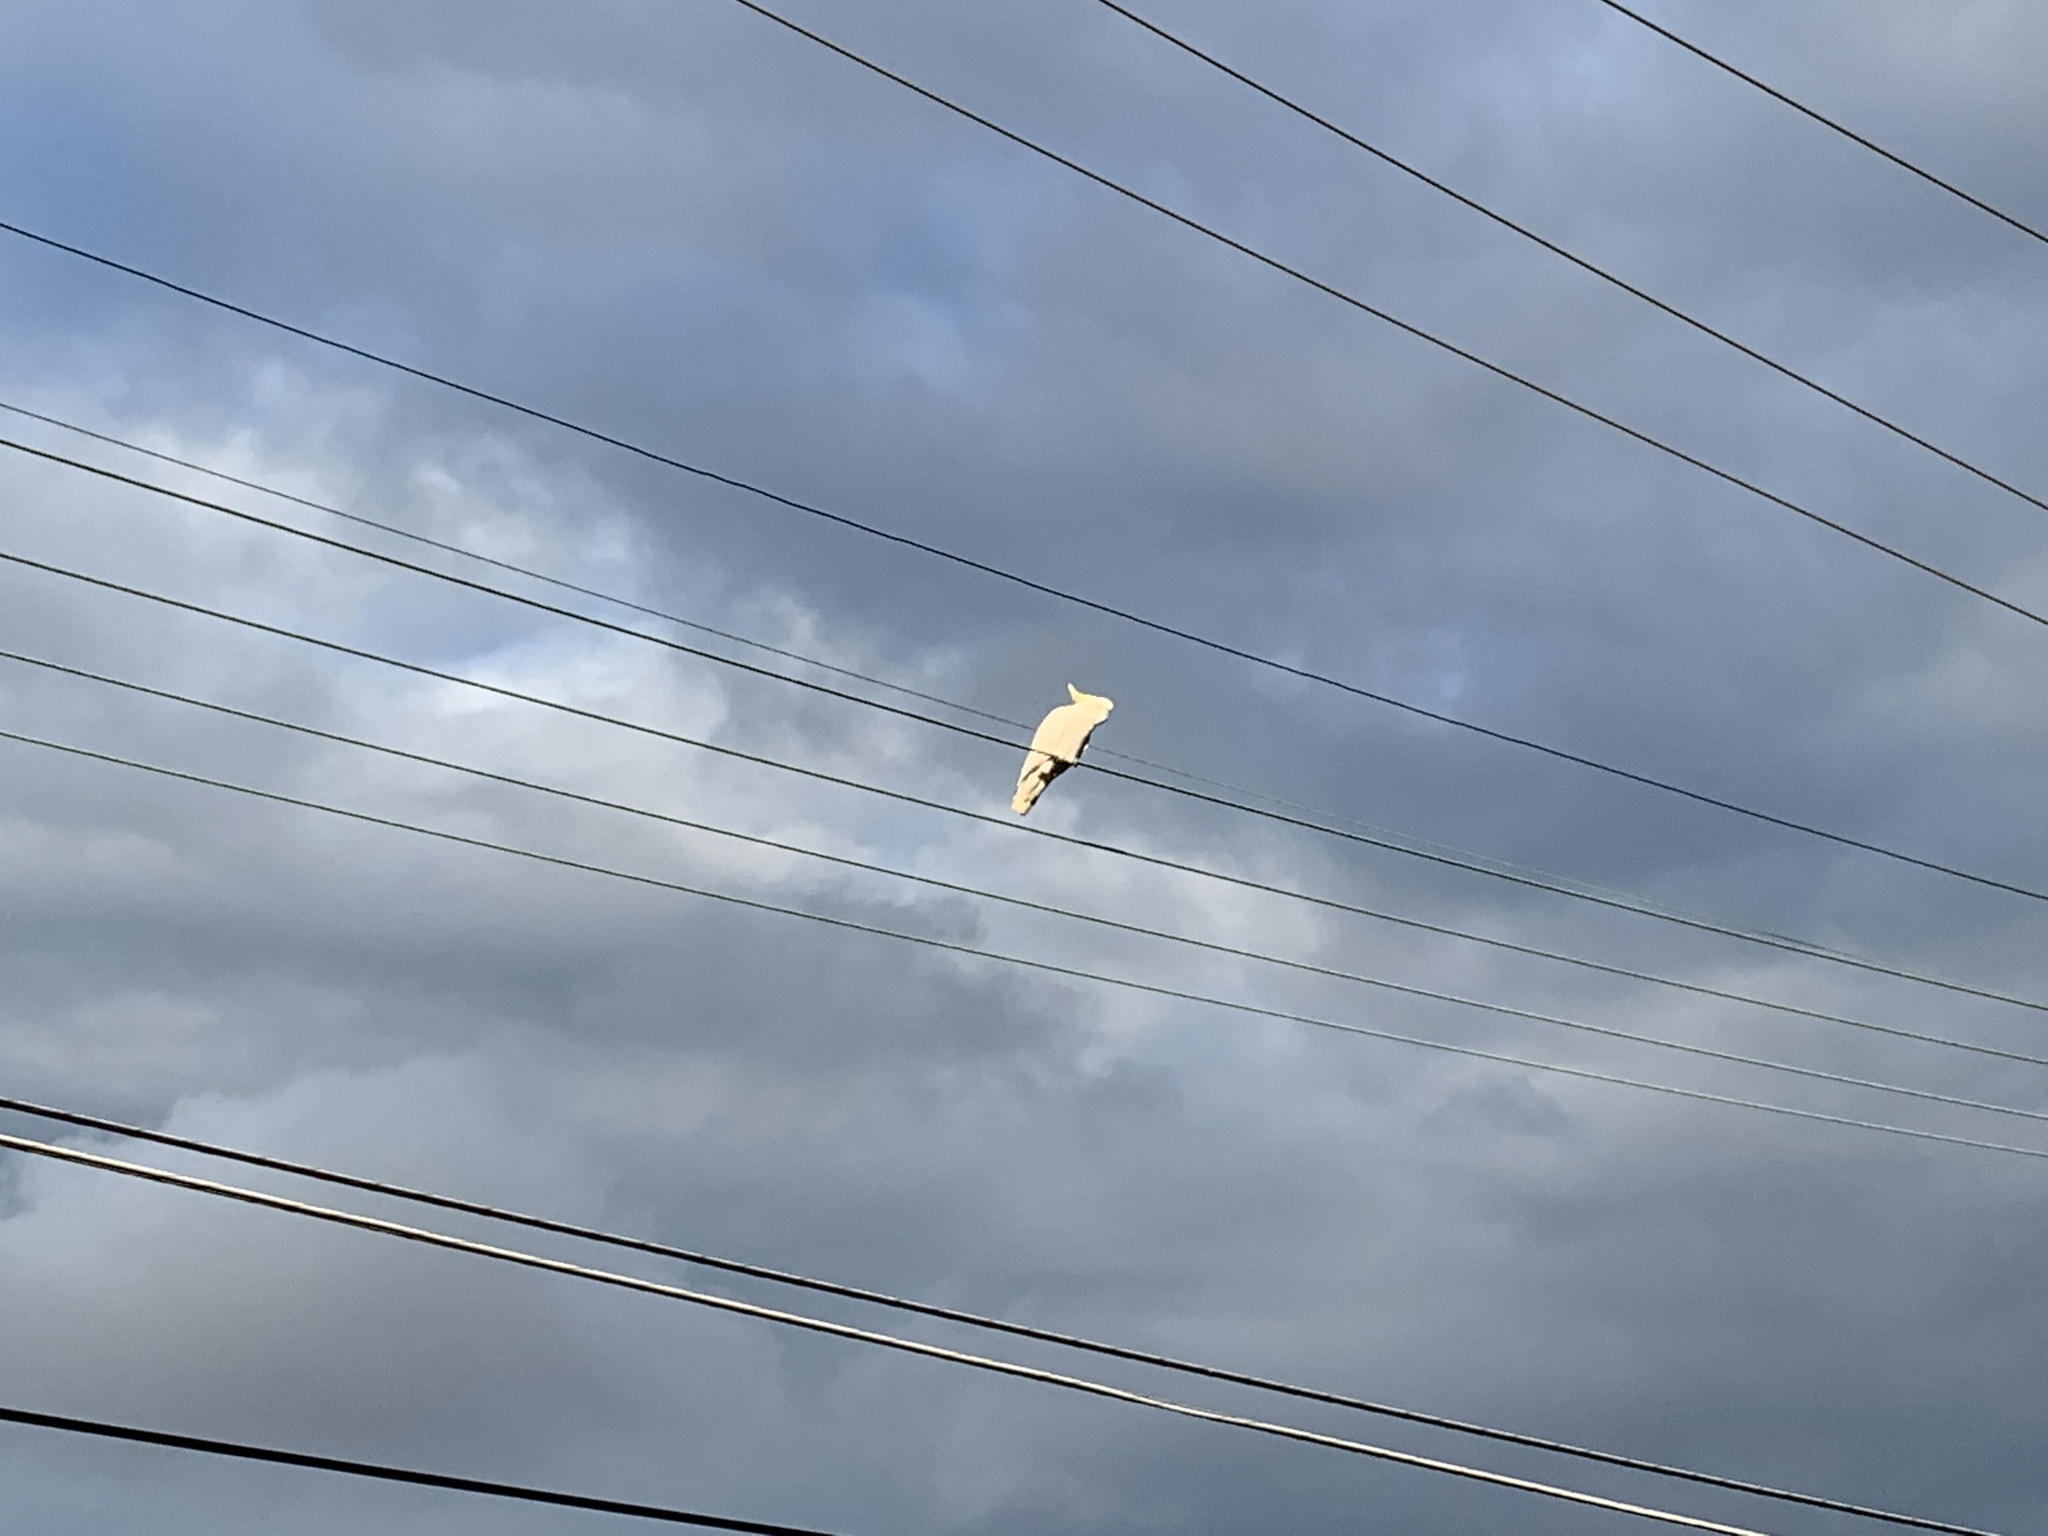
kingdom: Animalia
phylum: Chordata
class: Aves
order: Psittaciformes
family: Psittacidae
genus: Cacatua
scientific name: Cacatua galerita
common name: Sulphur-crested cockatoo
